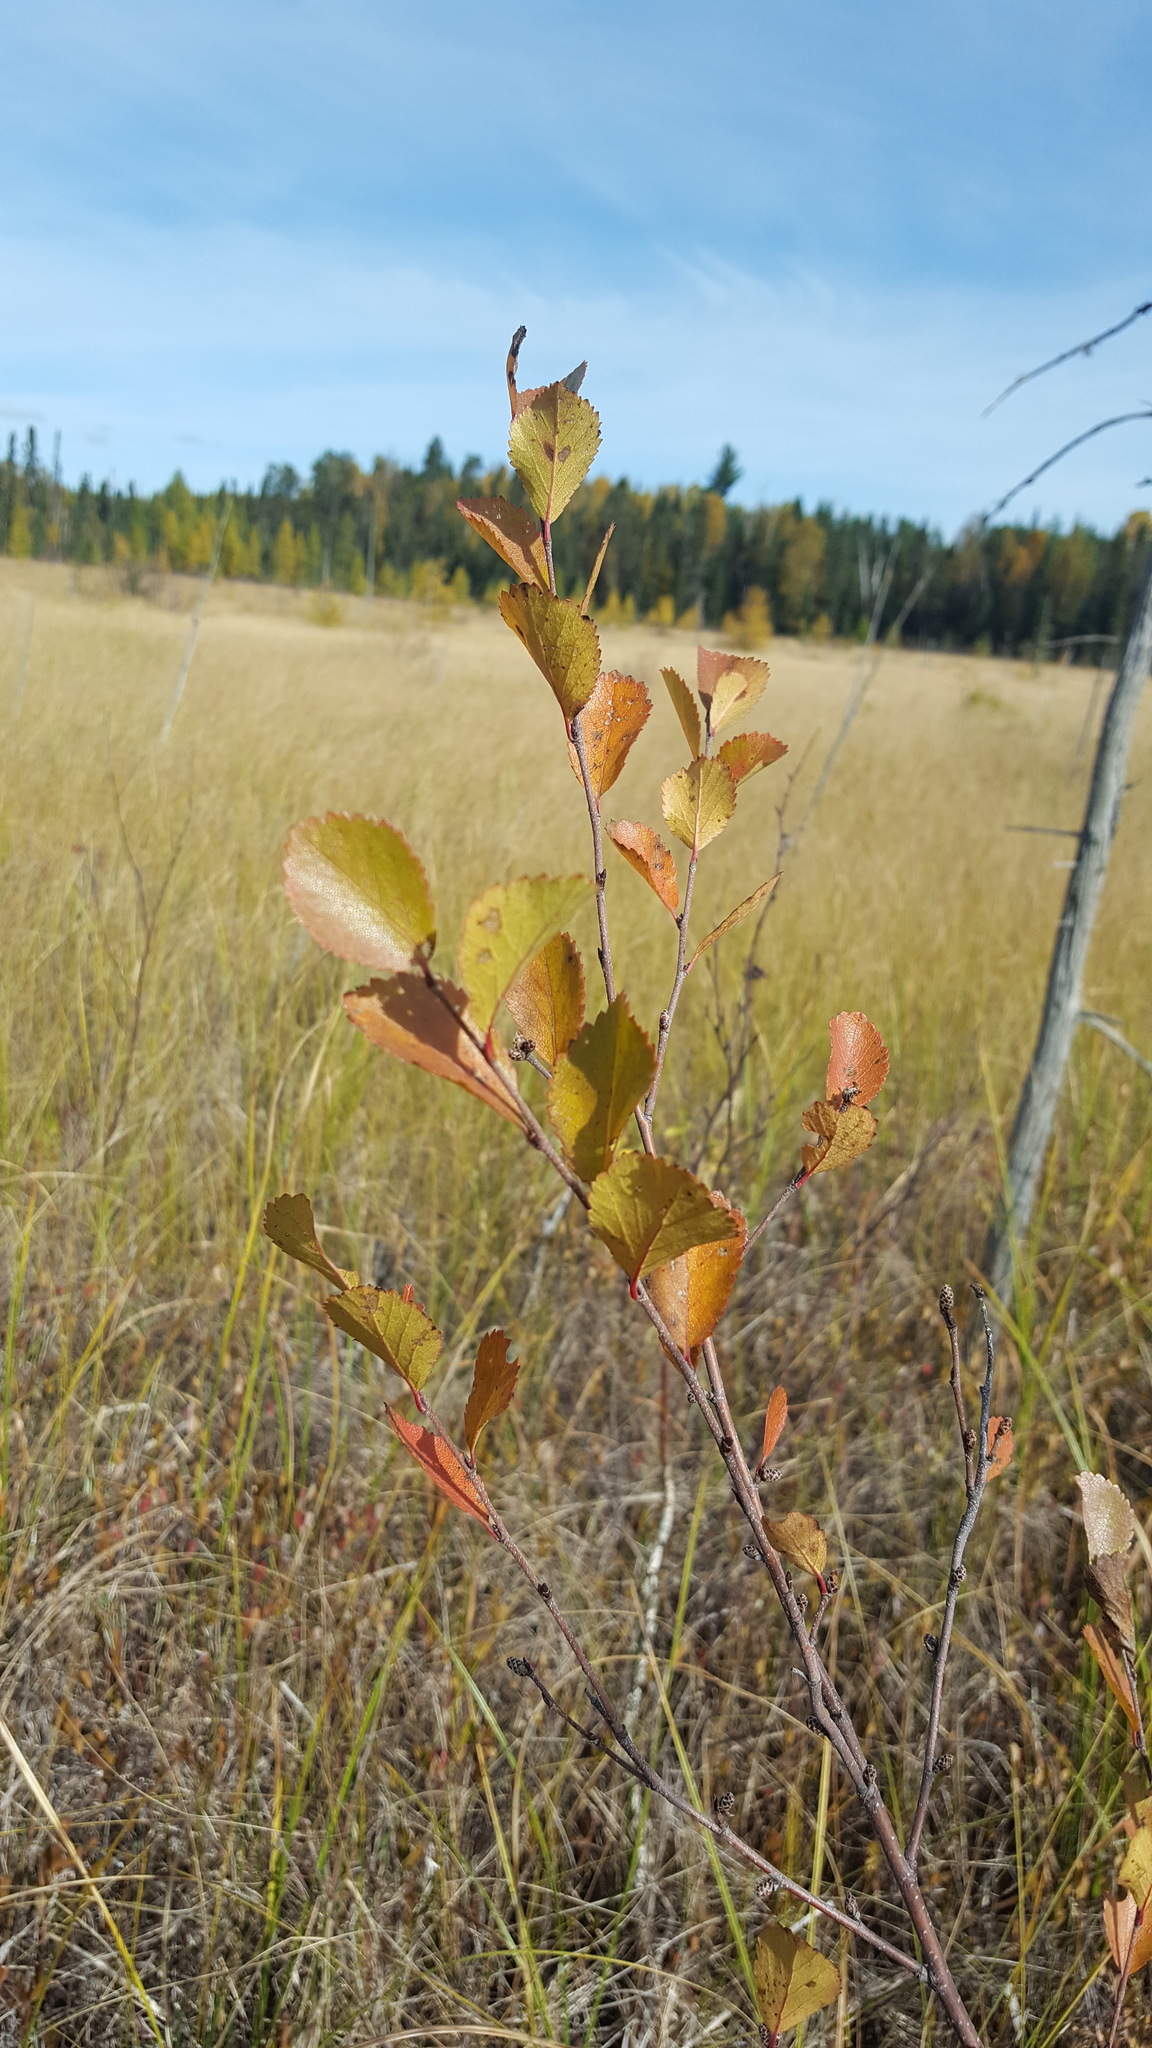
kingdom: Plantae
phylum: Tracheophyta
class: Magnoliopsida
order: Fagales
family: Betulaceae
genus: Betula
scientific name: Betula pumila
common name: Bog birch
